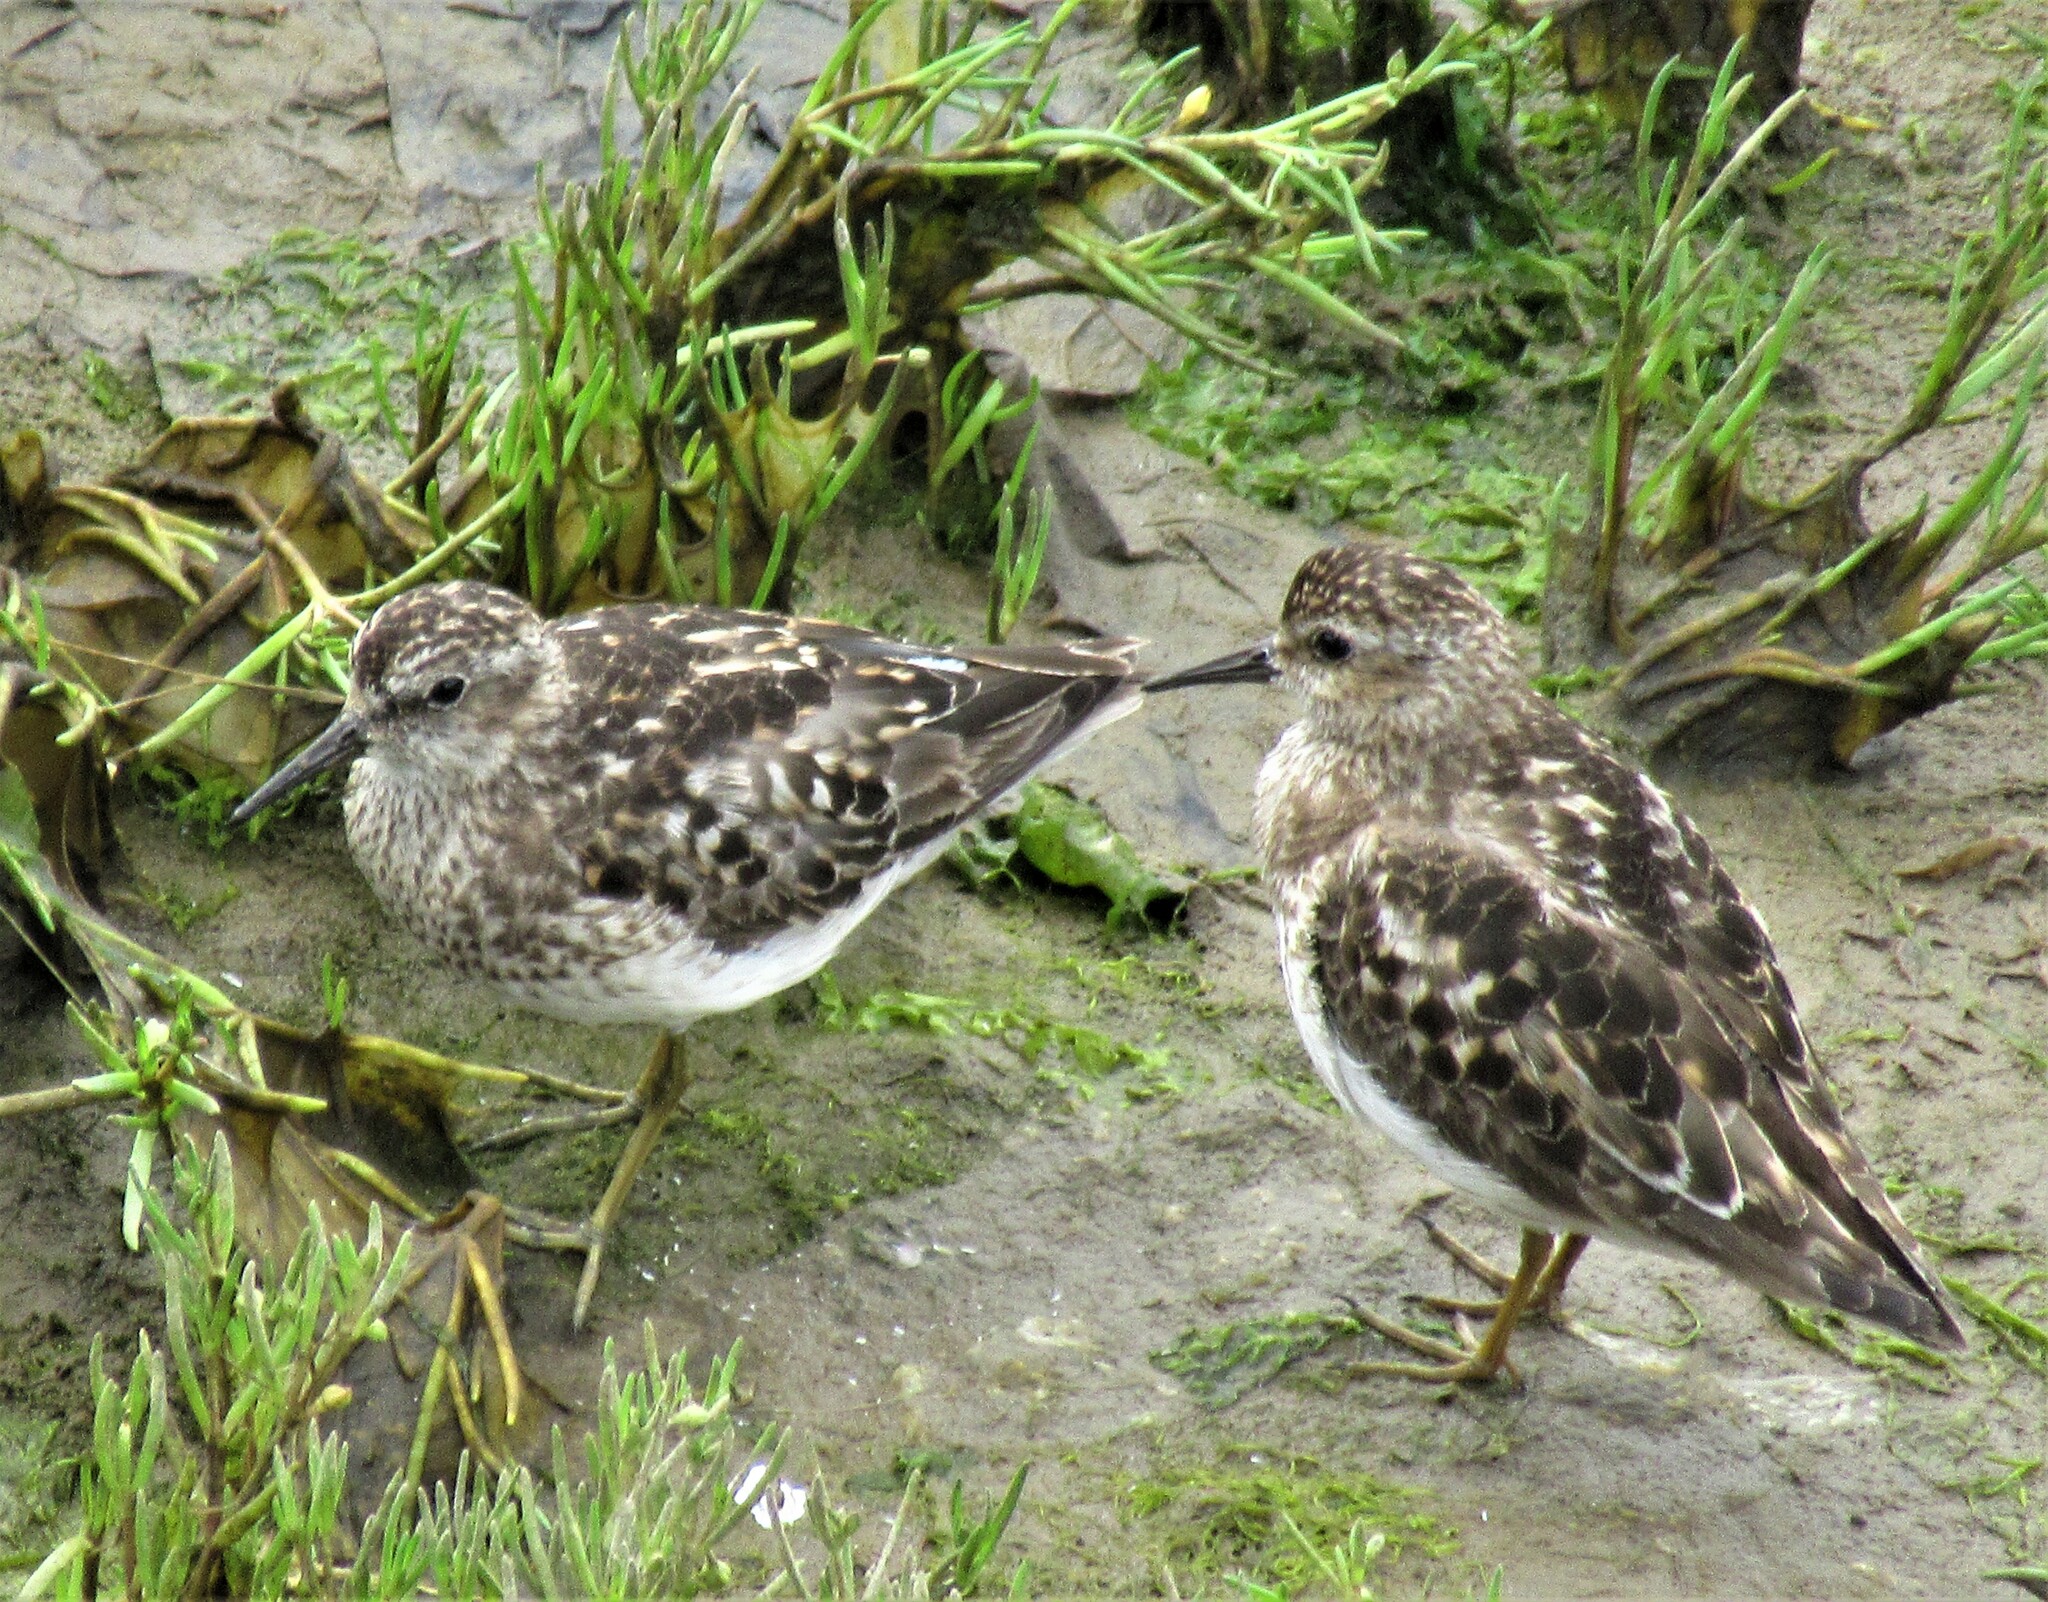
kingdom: Animalia
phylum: Chordata
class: Aves
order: Charadriiformes
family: Scolopacidae
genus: Calidris
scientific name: Calidris minutilla
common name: Least sandpiper
